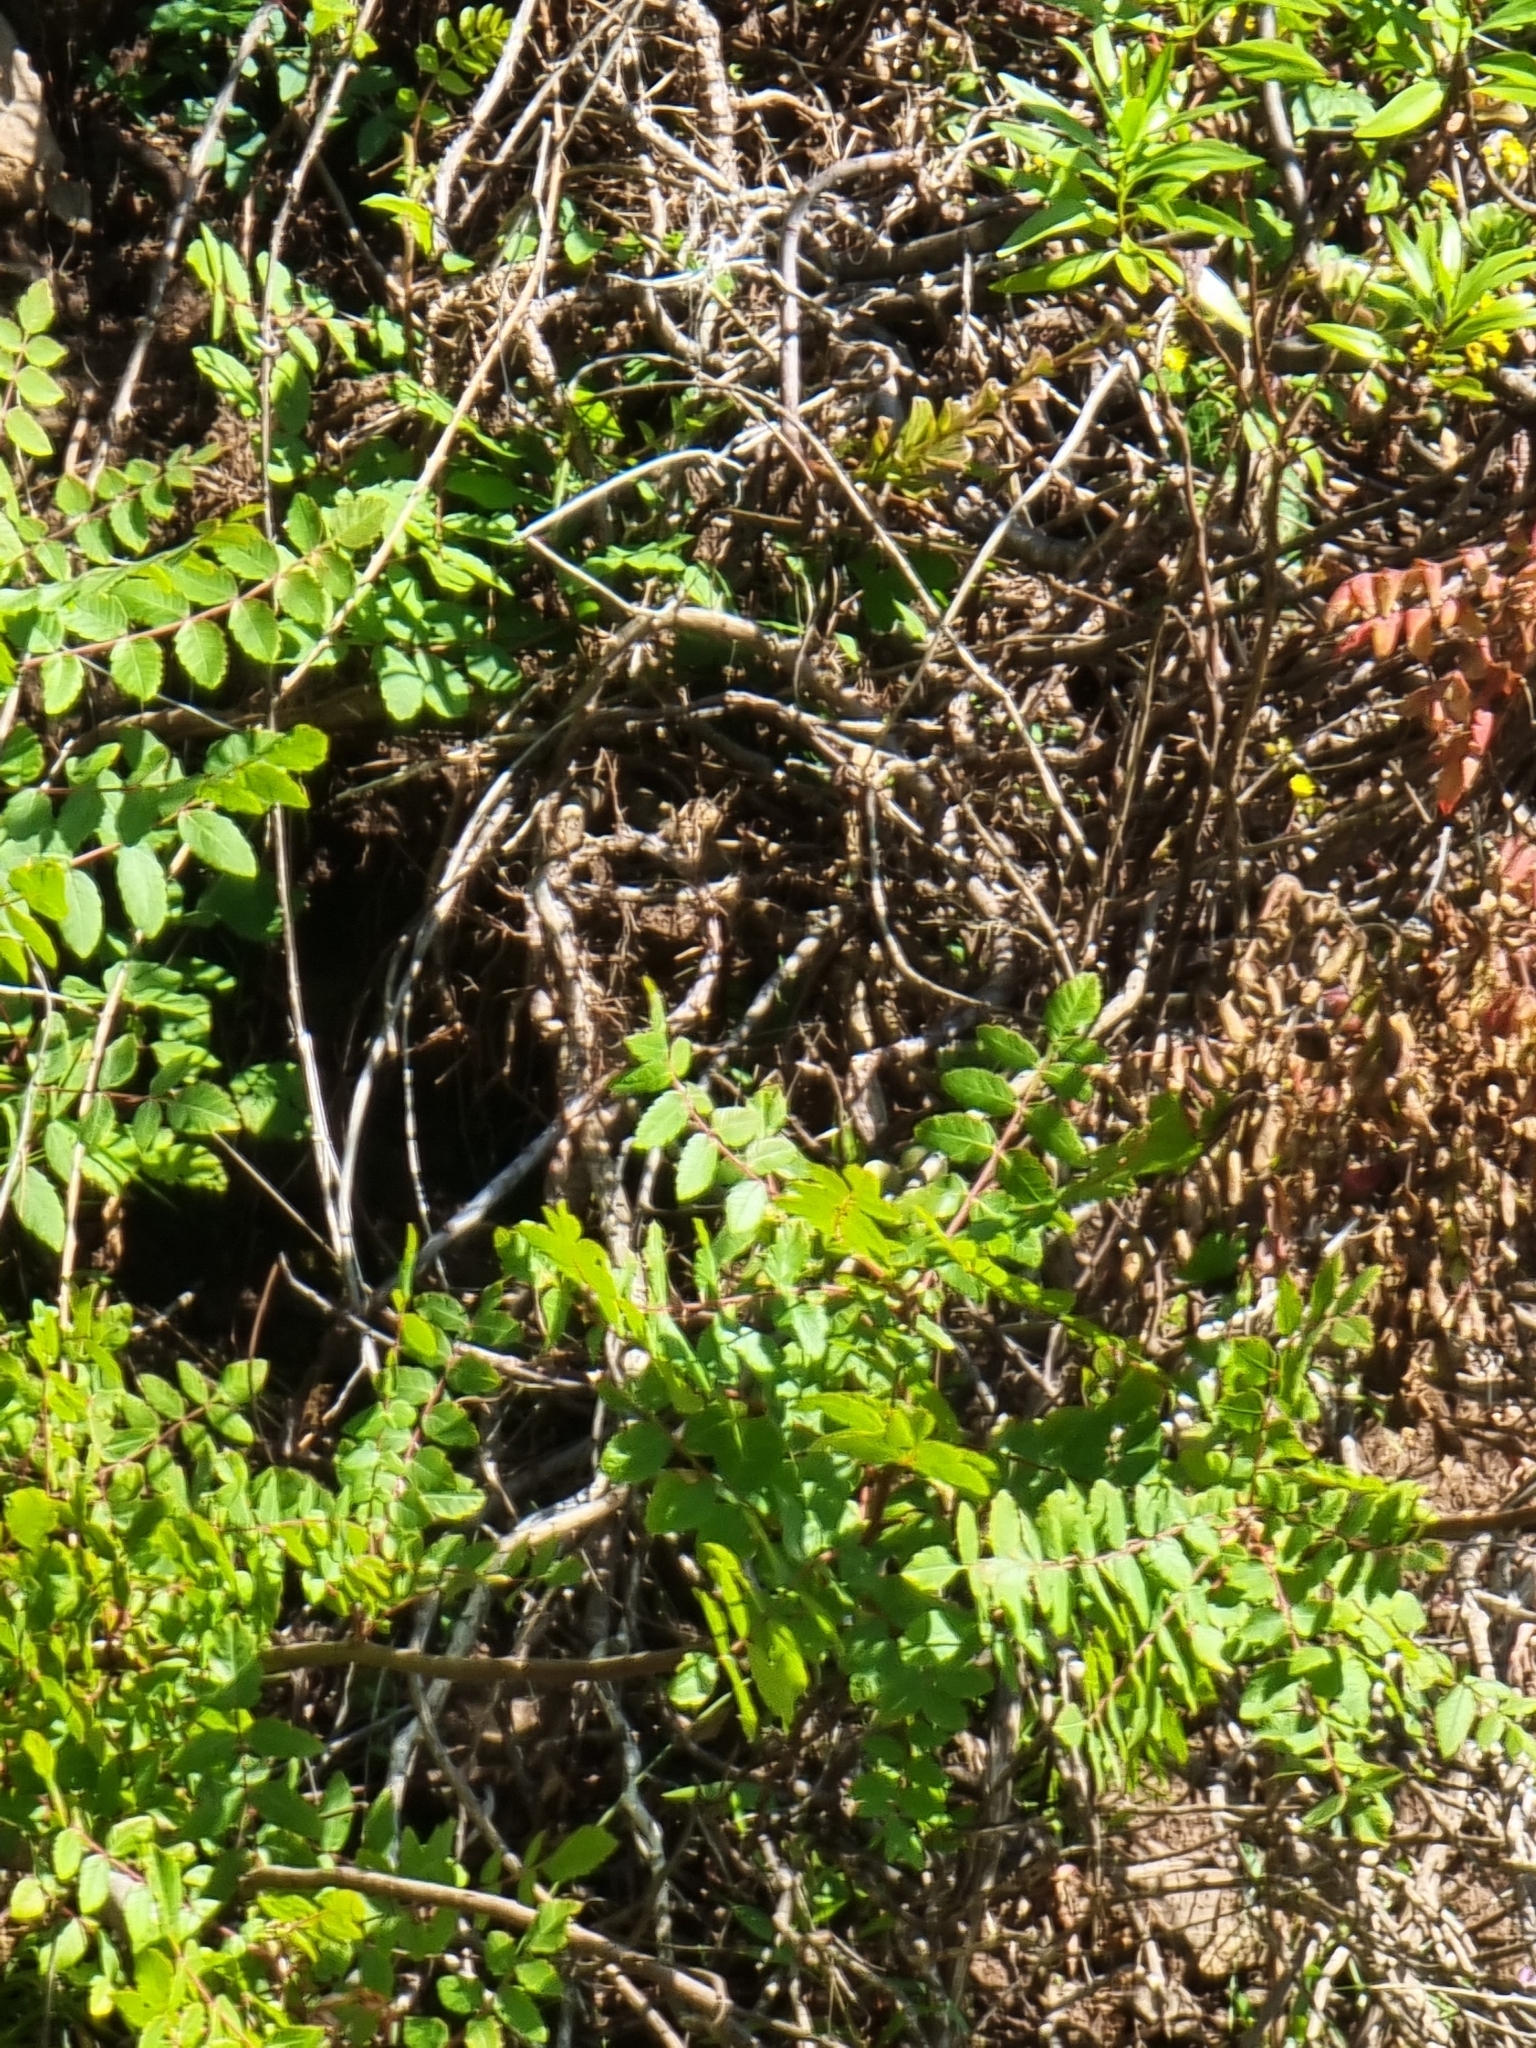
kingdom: Plantae
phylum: Tracheophyta
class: Magnoliopsida
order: Sapindales
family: Anacardiaceae
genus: Rhus
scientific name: Rhus coriaria
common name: Tanner's sumach
